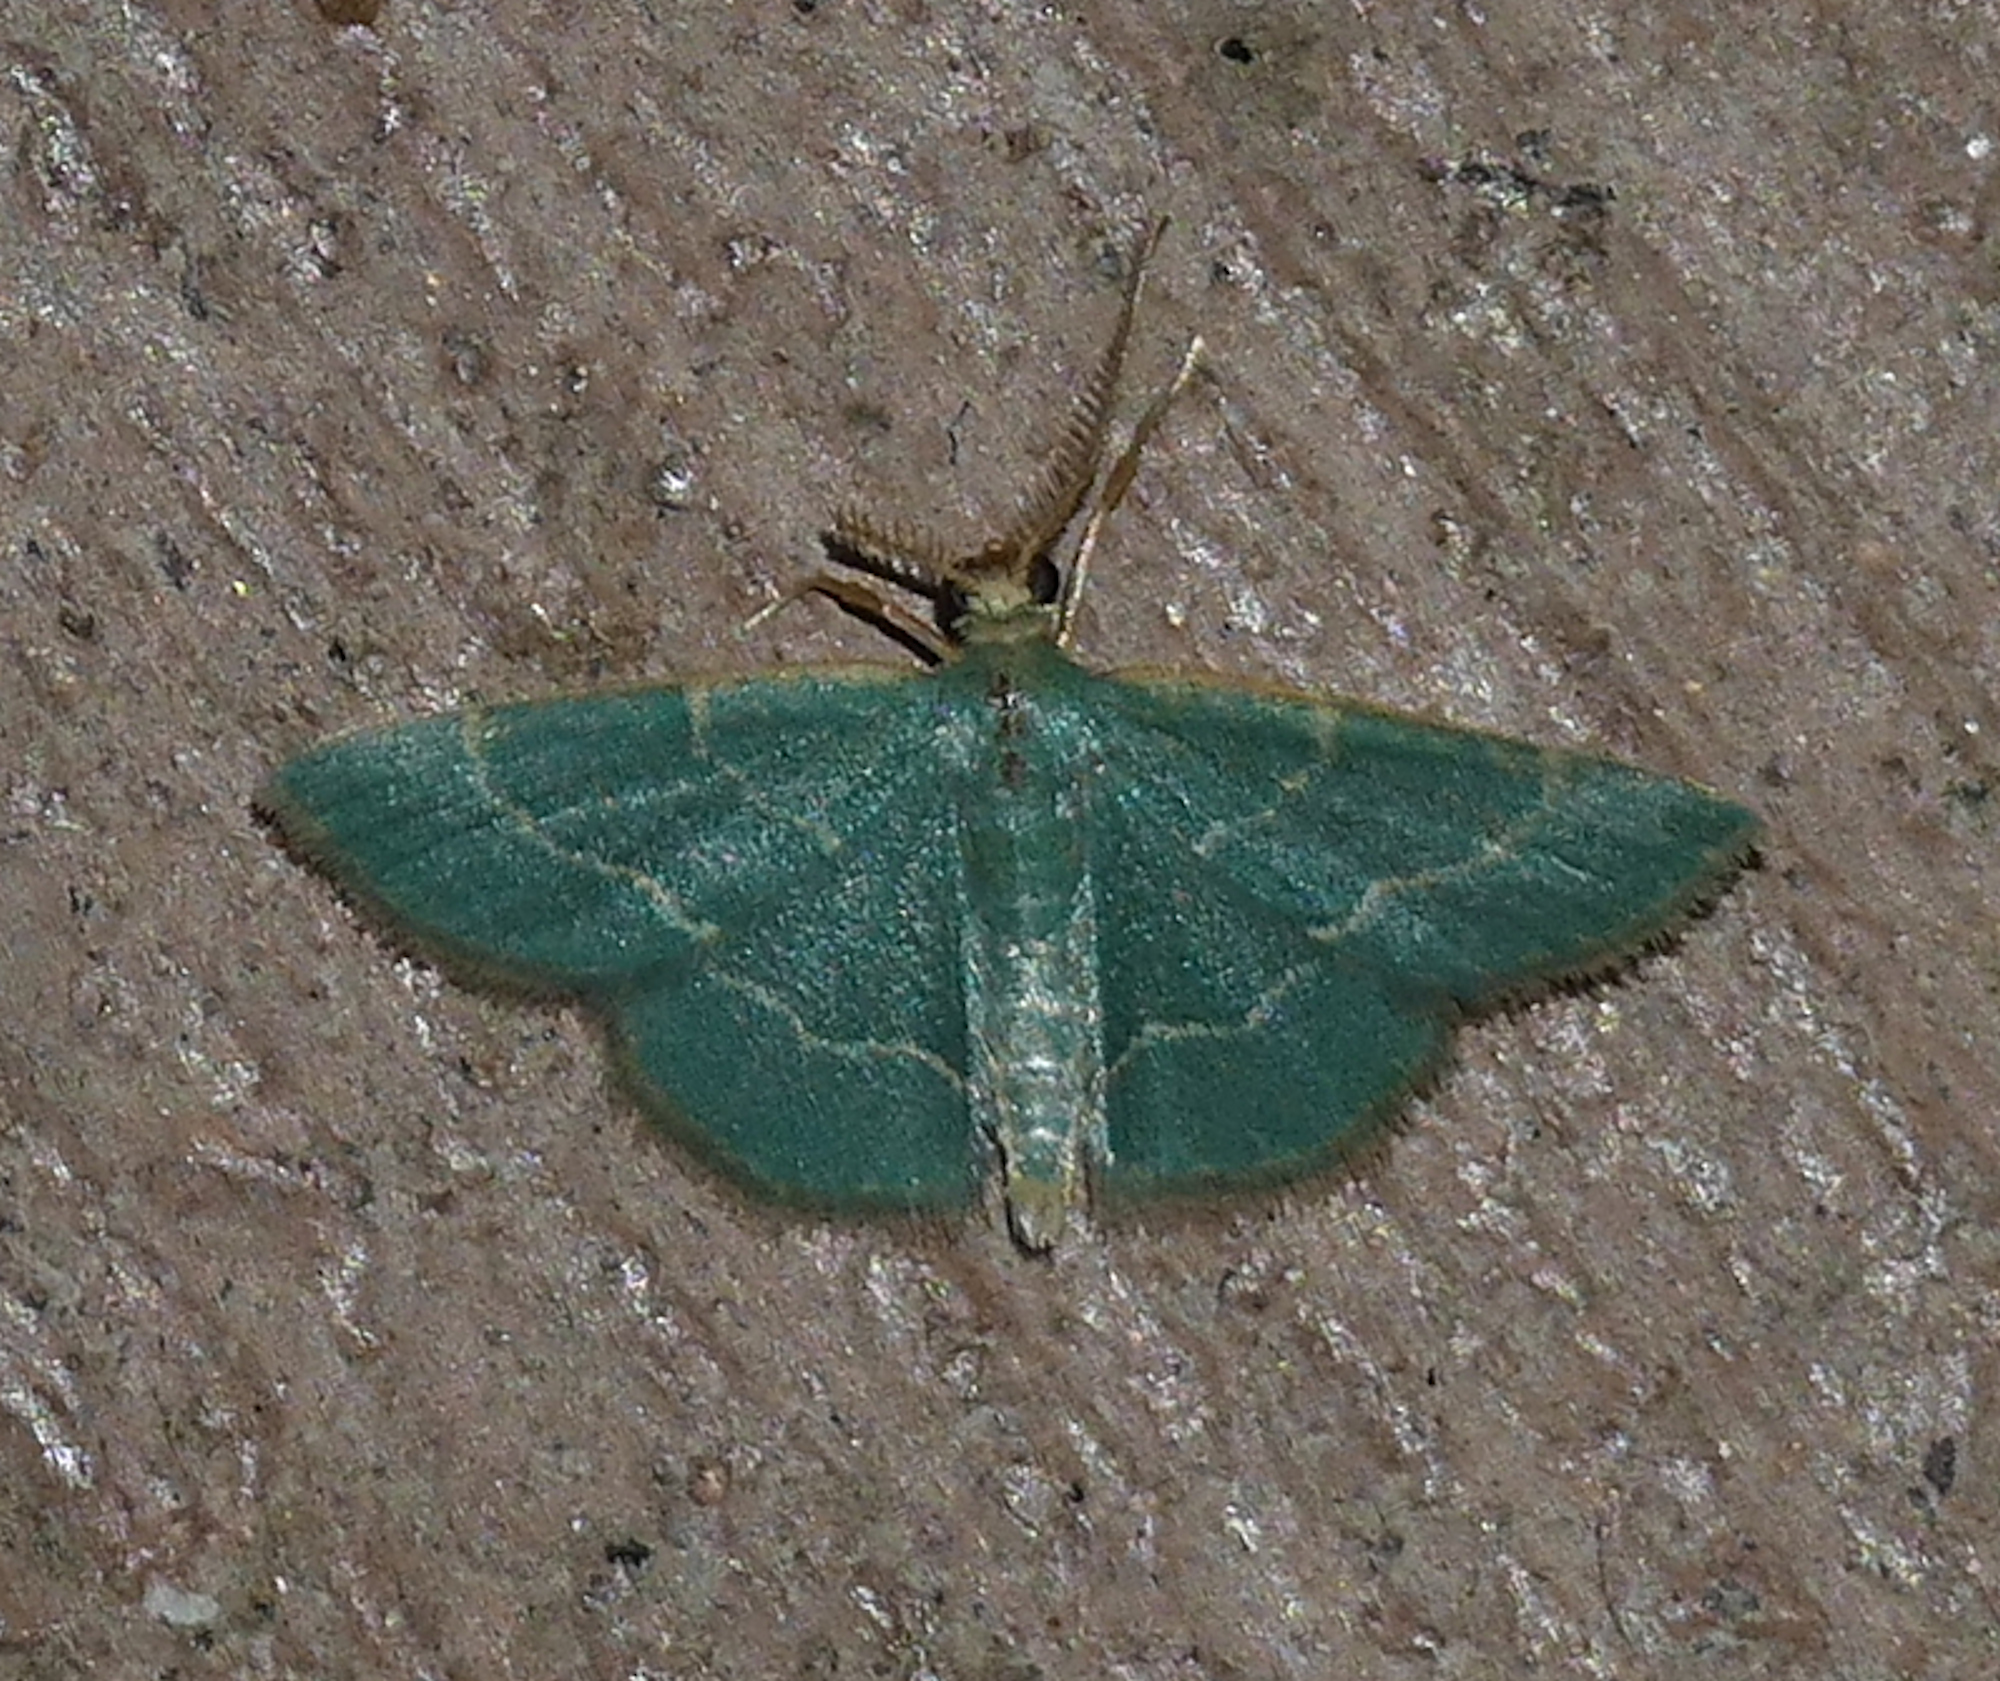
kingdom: Animalia
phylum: Arthropoda
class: Insecta
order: Lepidoptera
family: Geometridae
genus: Chlorochlamys
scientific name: Chlorochlamys phyllinaria
